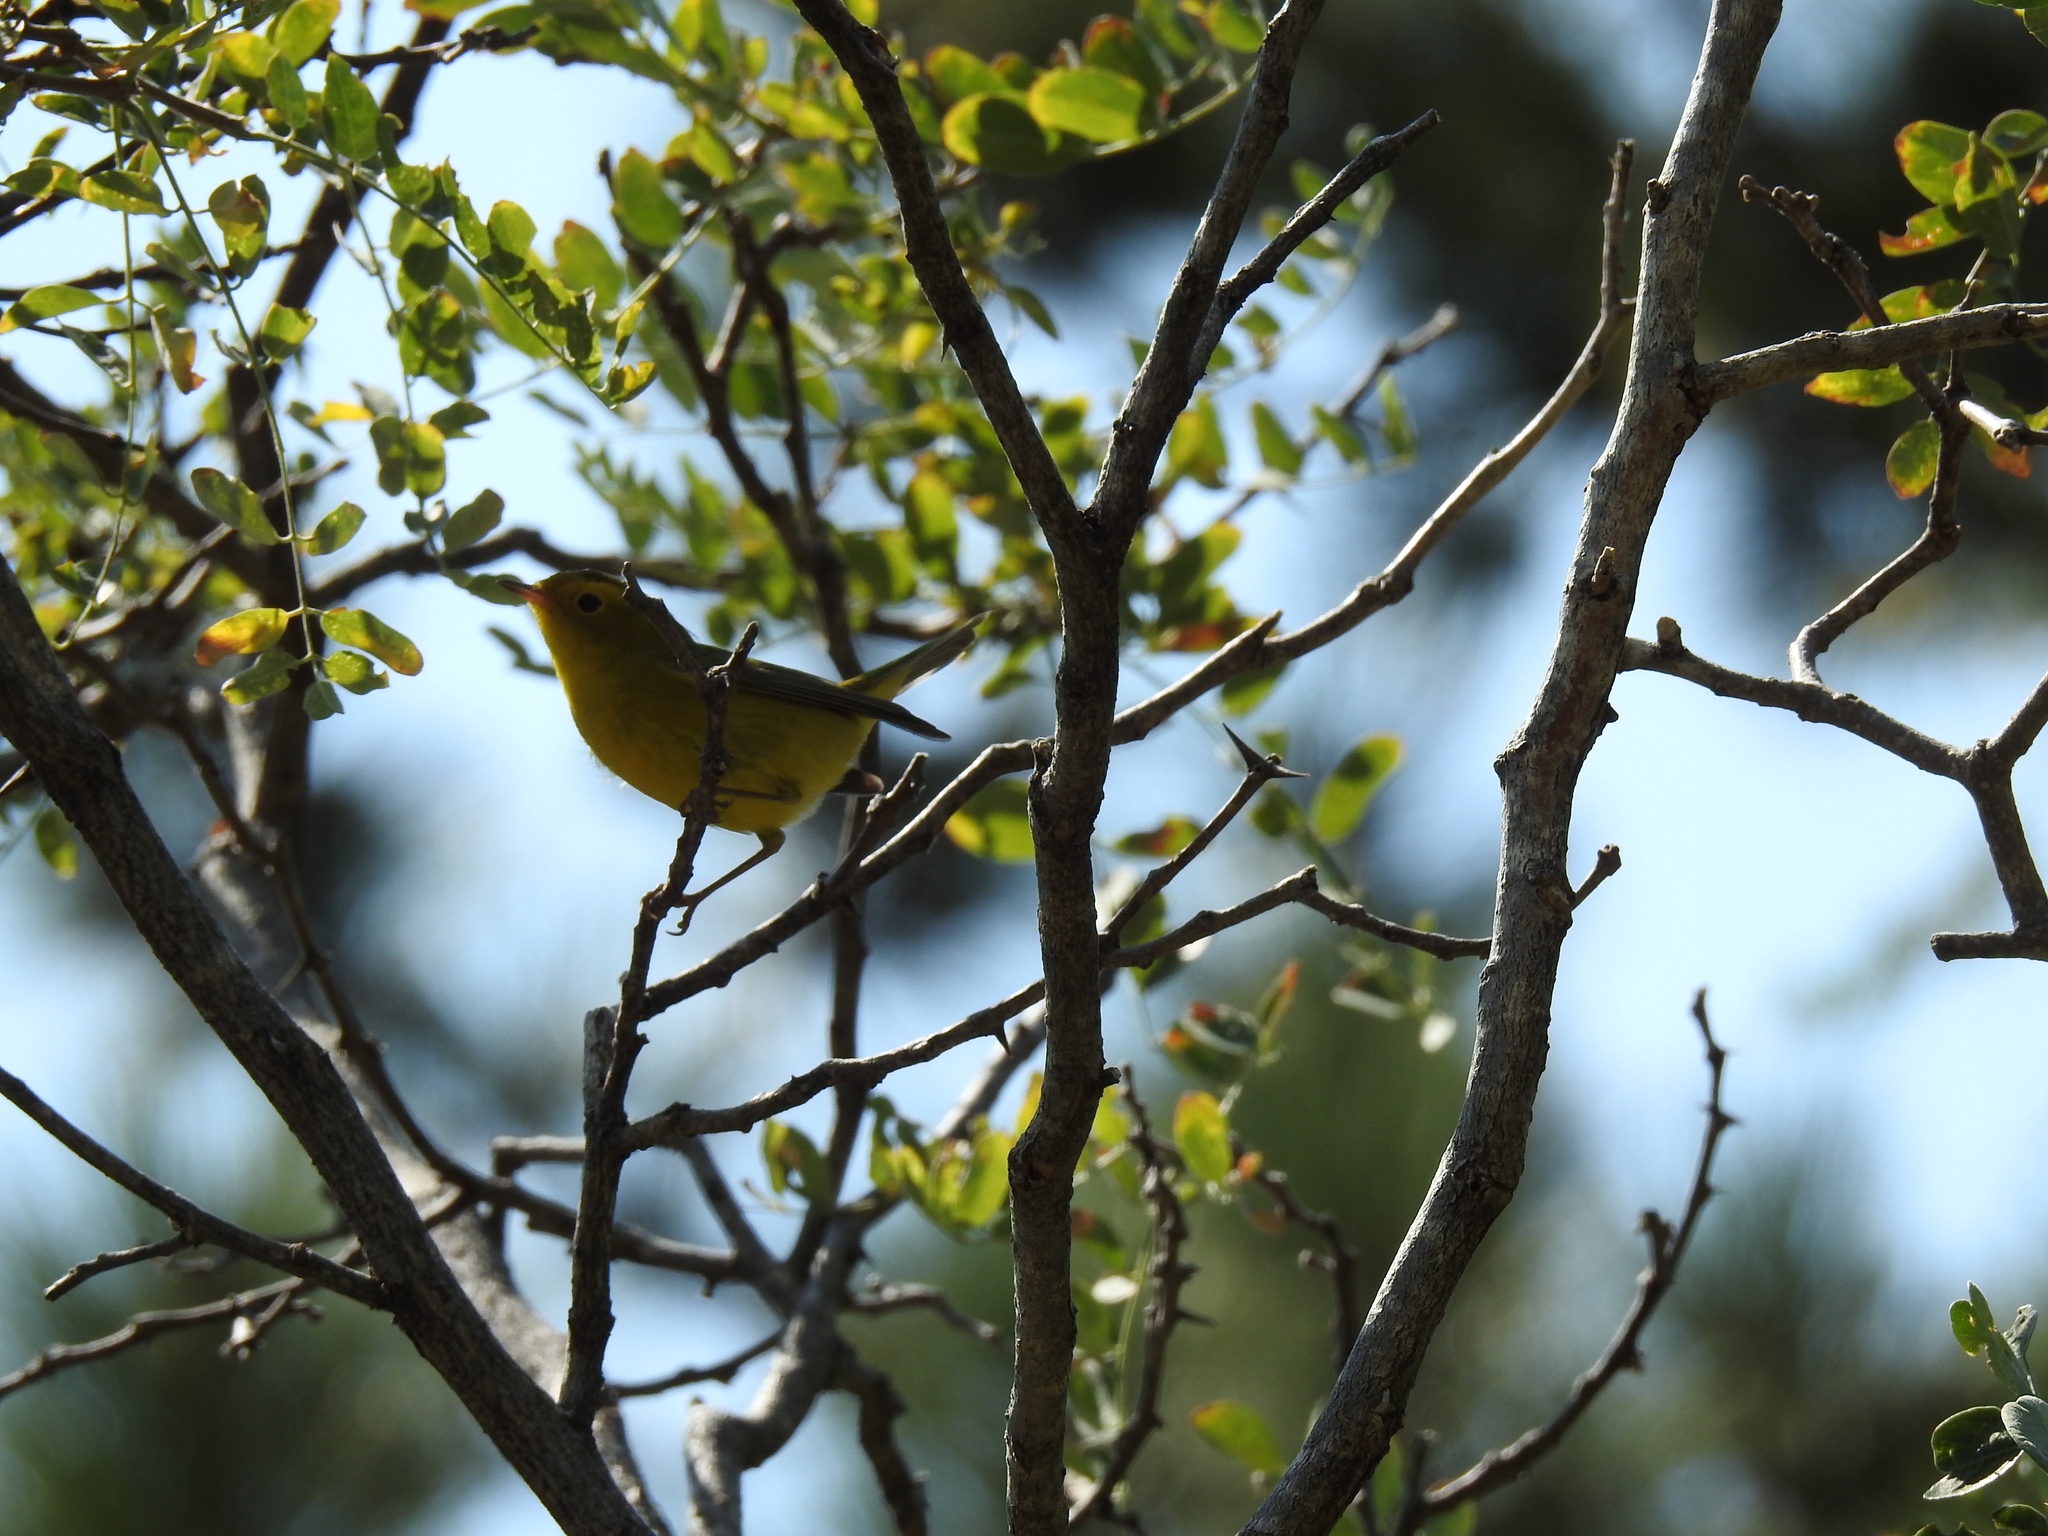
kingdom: Animalia
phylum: Chordata
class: Aves
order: Passeriformes
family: Parulidae
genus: Cardellina
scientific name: Cardellina pusilla
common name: Wilson's warbler
